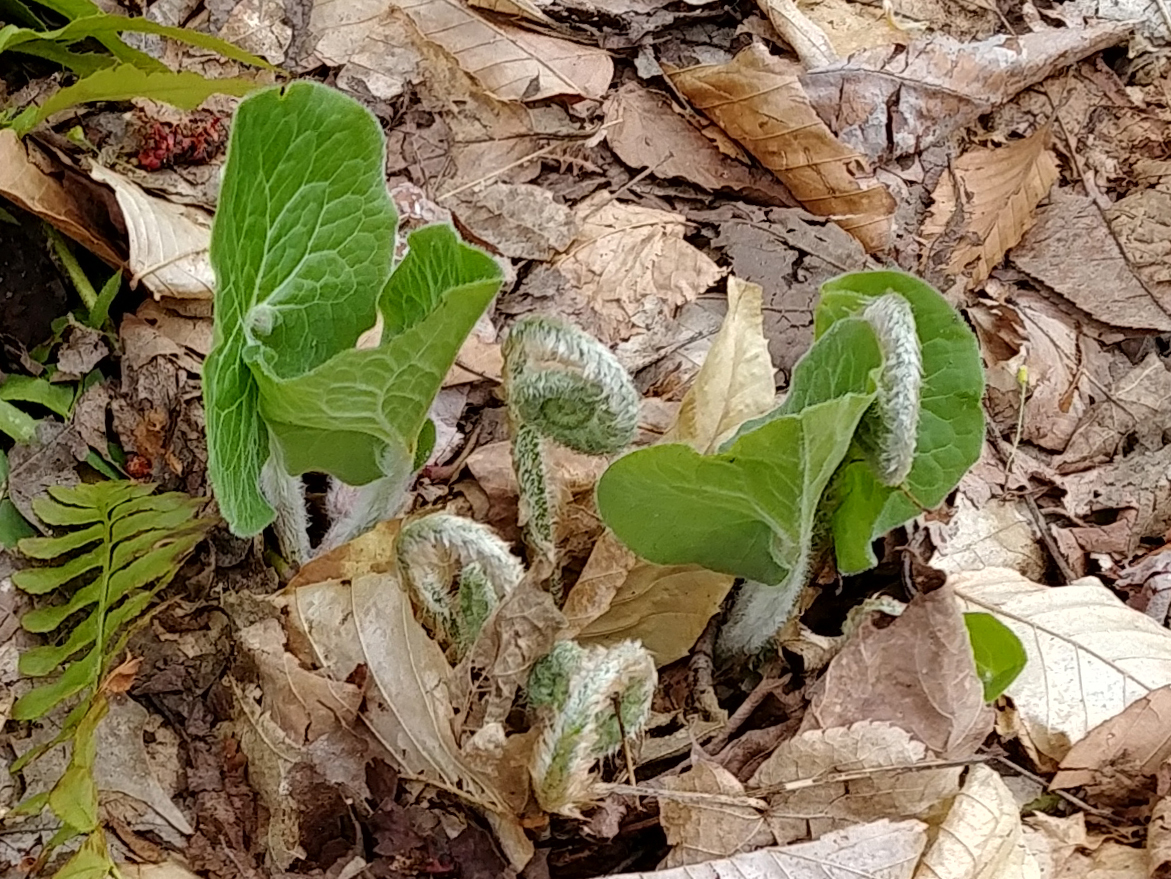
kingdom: Plantae
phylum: Tracheophyta
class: Magnoliopsida
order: Piperales
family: Aristolochiaceae
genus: Asarum
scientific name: Asarum canadense
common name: Wild ginger
